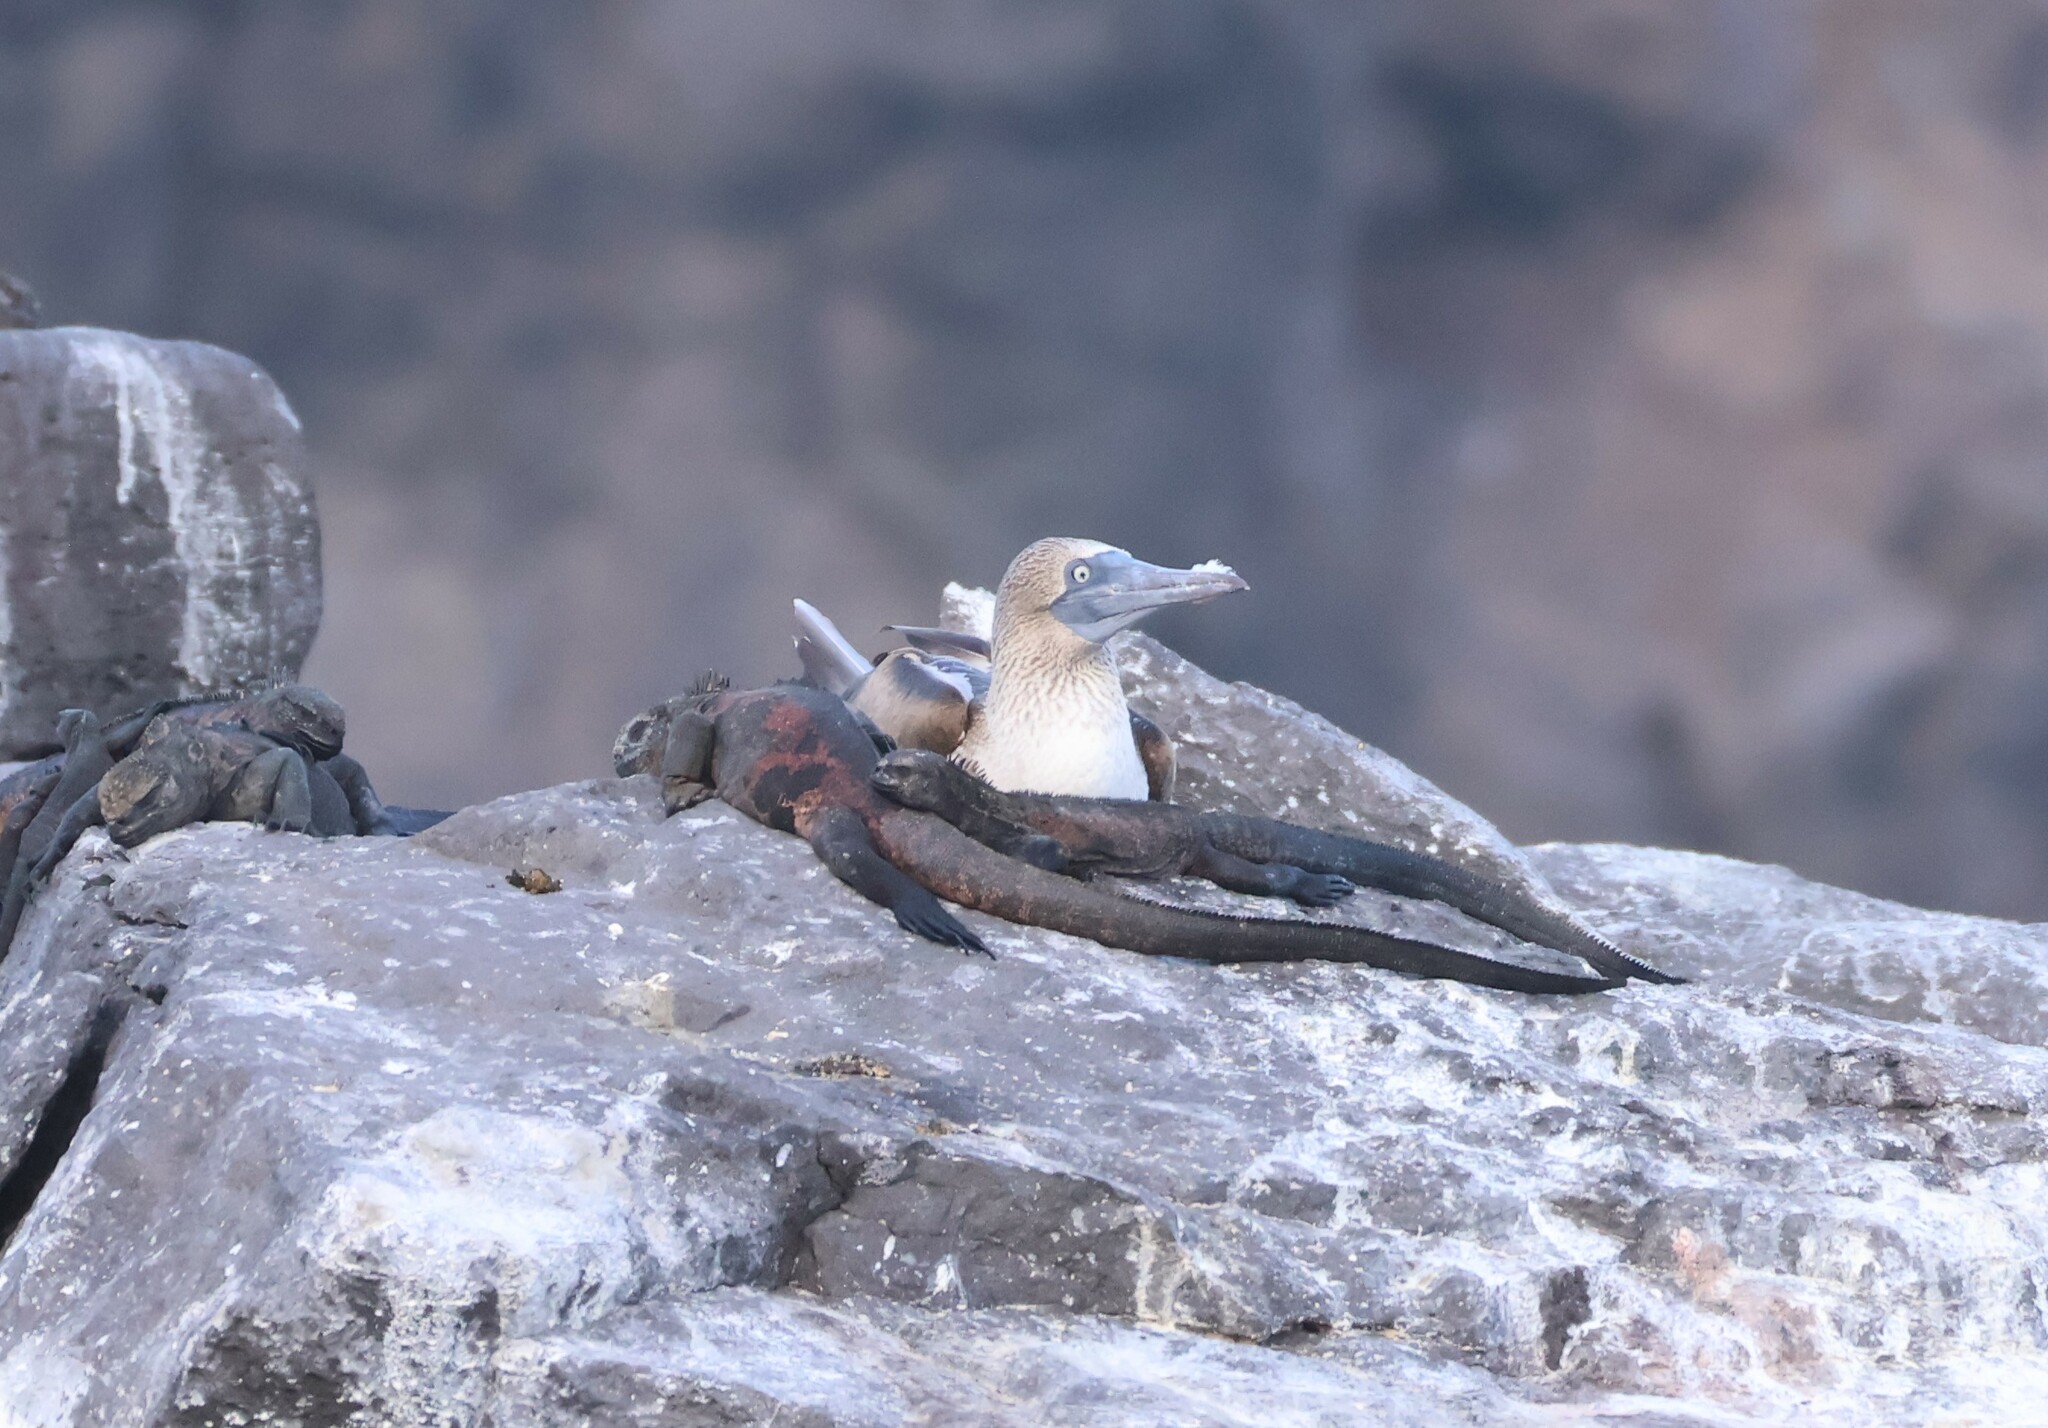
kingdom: Animalia
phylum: Chordata
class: Aves
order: Suliformes
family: Sulidae
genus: Sula
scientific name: Sula nebouxii
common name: Blue-footed booby
